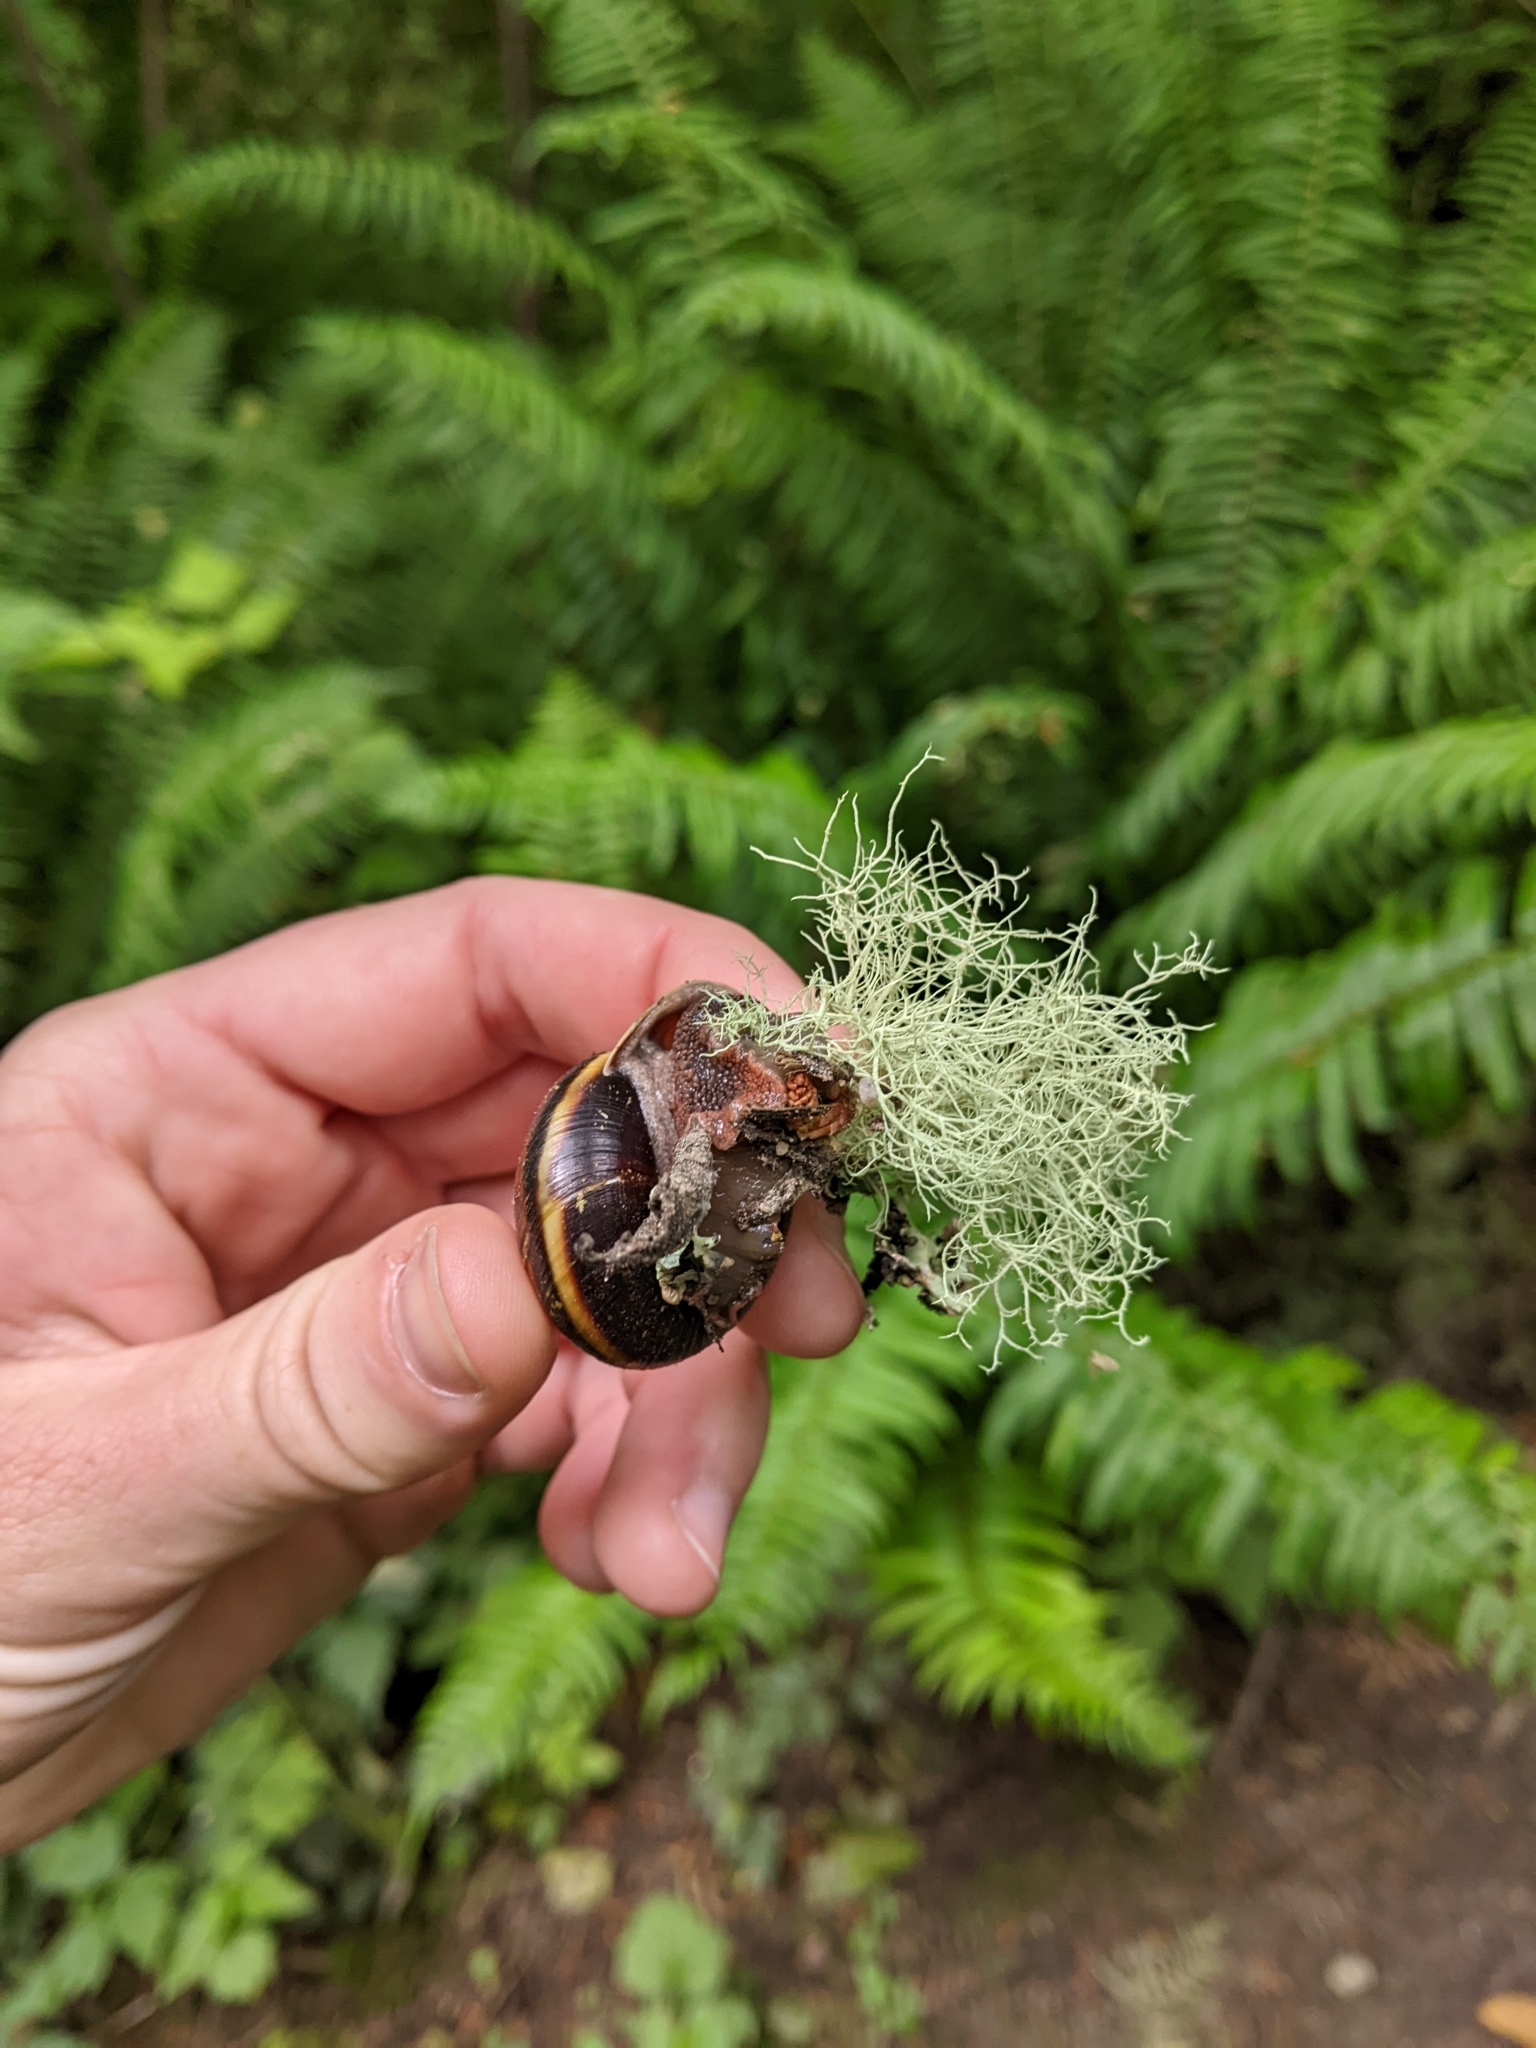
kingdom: Animalia
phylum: Mollusca
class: Gastropoda
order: Stylommatophora
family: Xanthonychidae
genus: Monadenia
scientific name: Monadenia fidelis
